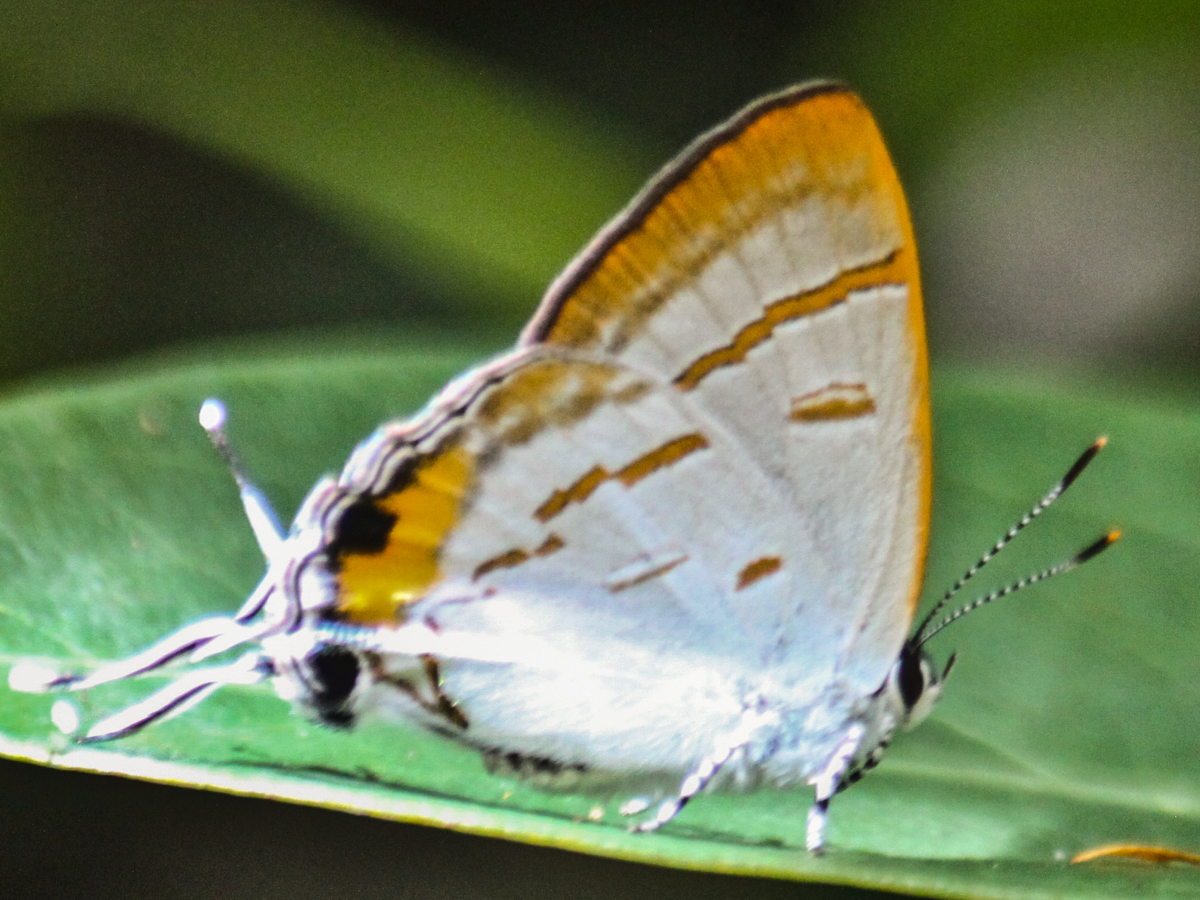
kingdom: Animalia
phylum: Arthropoda
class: Insecta
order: Lepidoptera
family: Lycaenidae
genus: Hypolycaena
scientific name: Hypolycaena thecloides
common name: Dark tit
